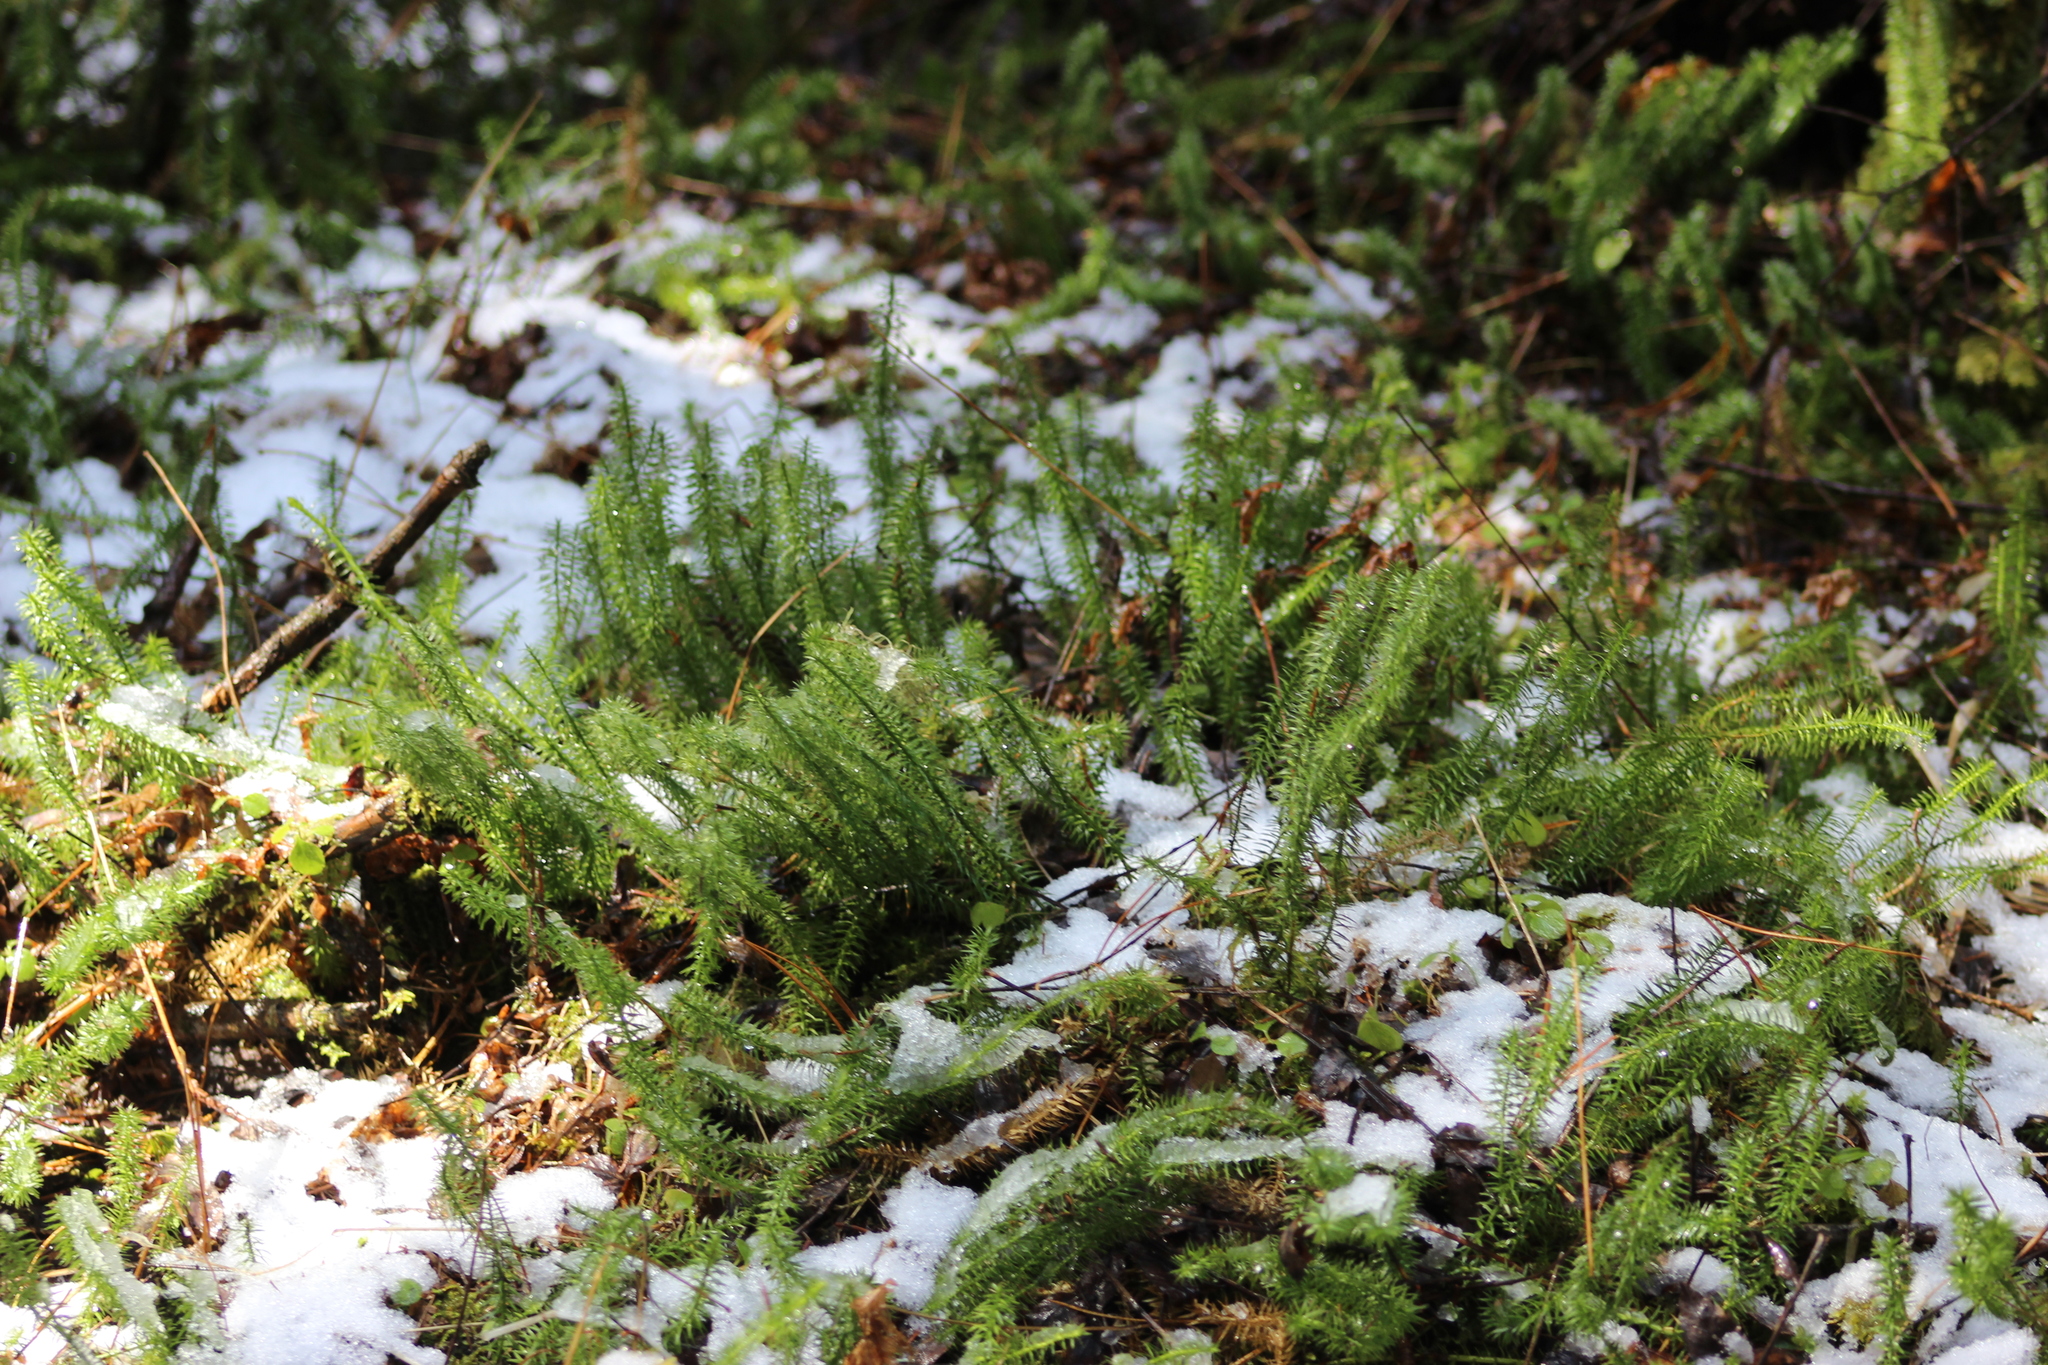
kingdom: Plantae
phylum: Tracheophyta
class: Lycopodiopsida
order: Lycopodiales
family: Lycopodiaceae
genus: Spinulum
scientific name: Spinulum annotinum
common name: Interrupted club-moss
